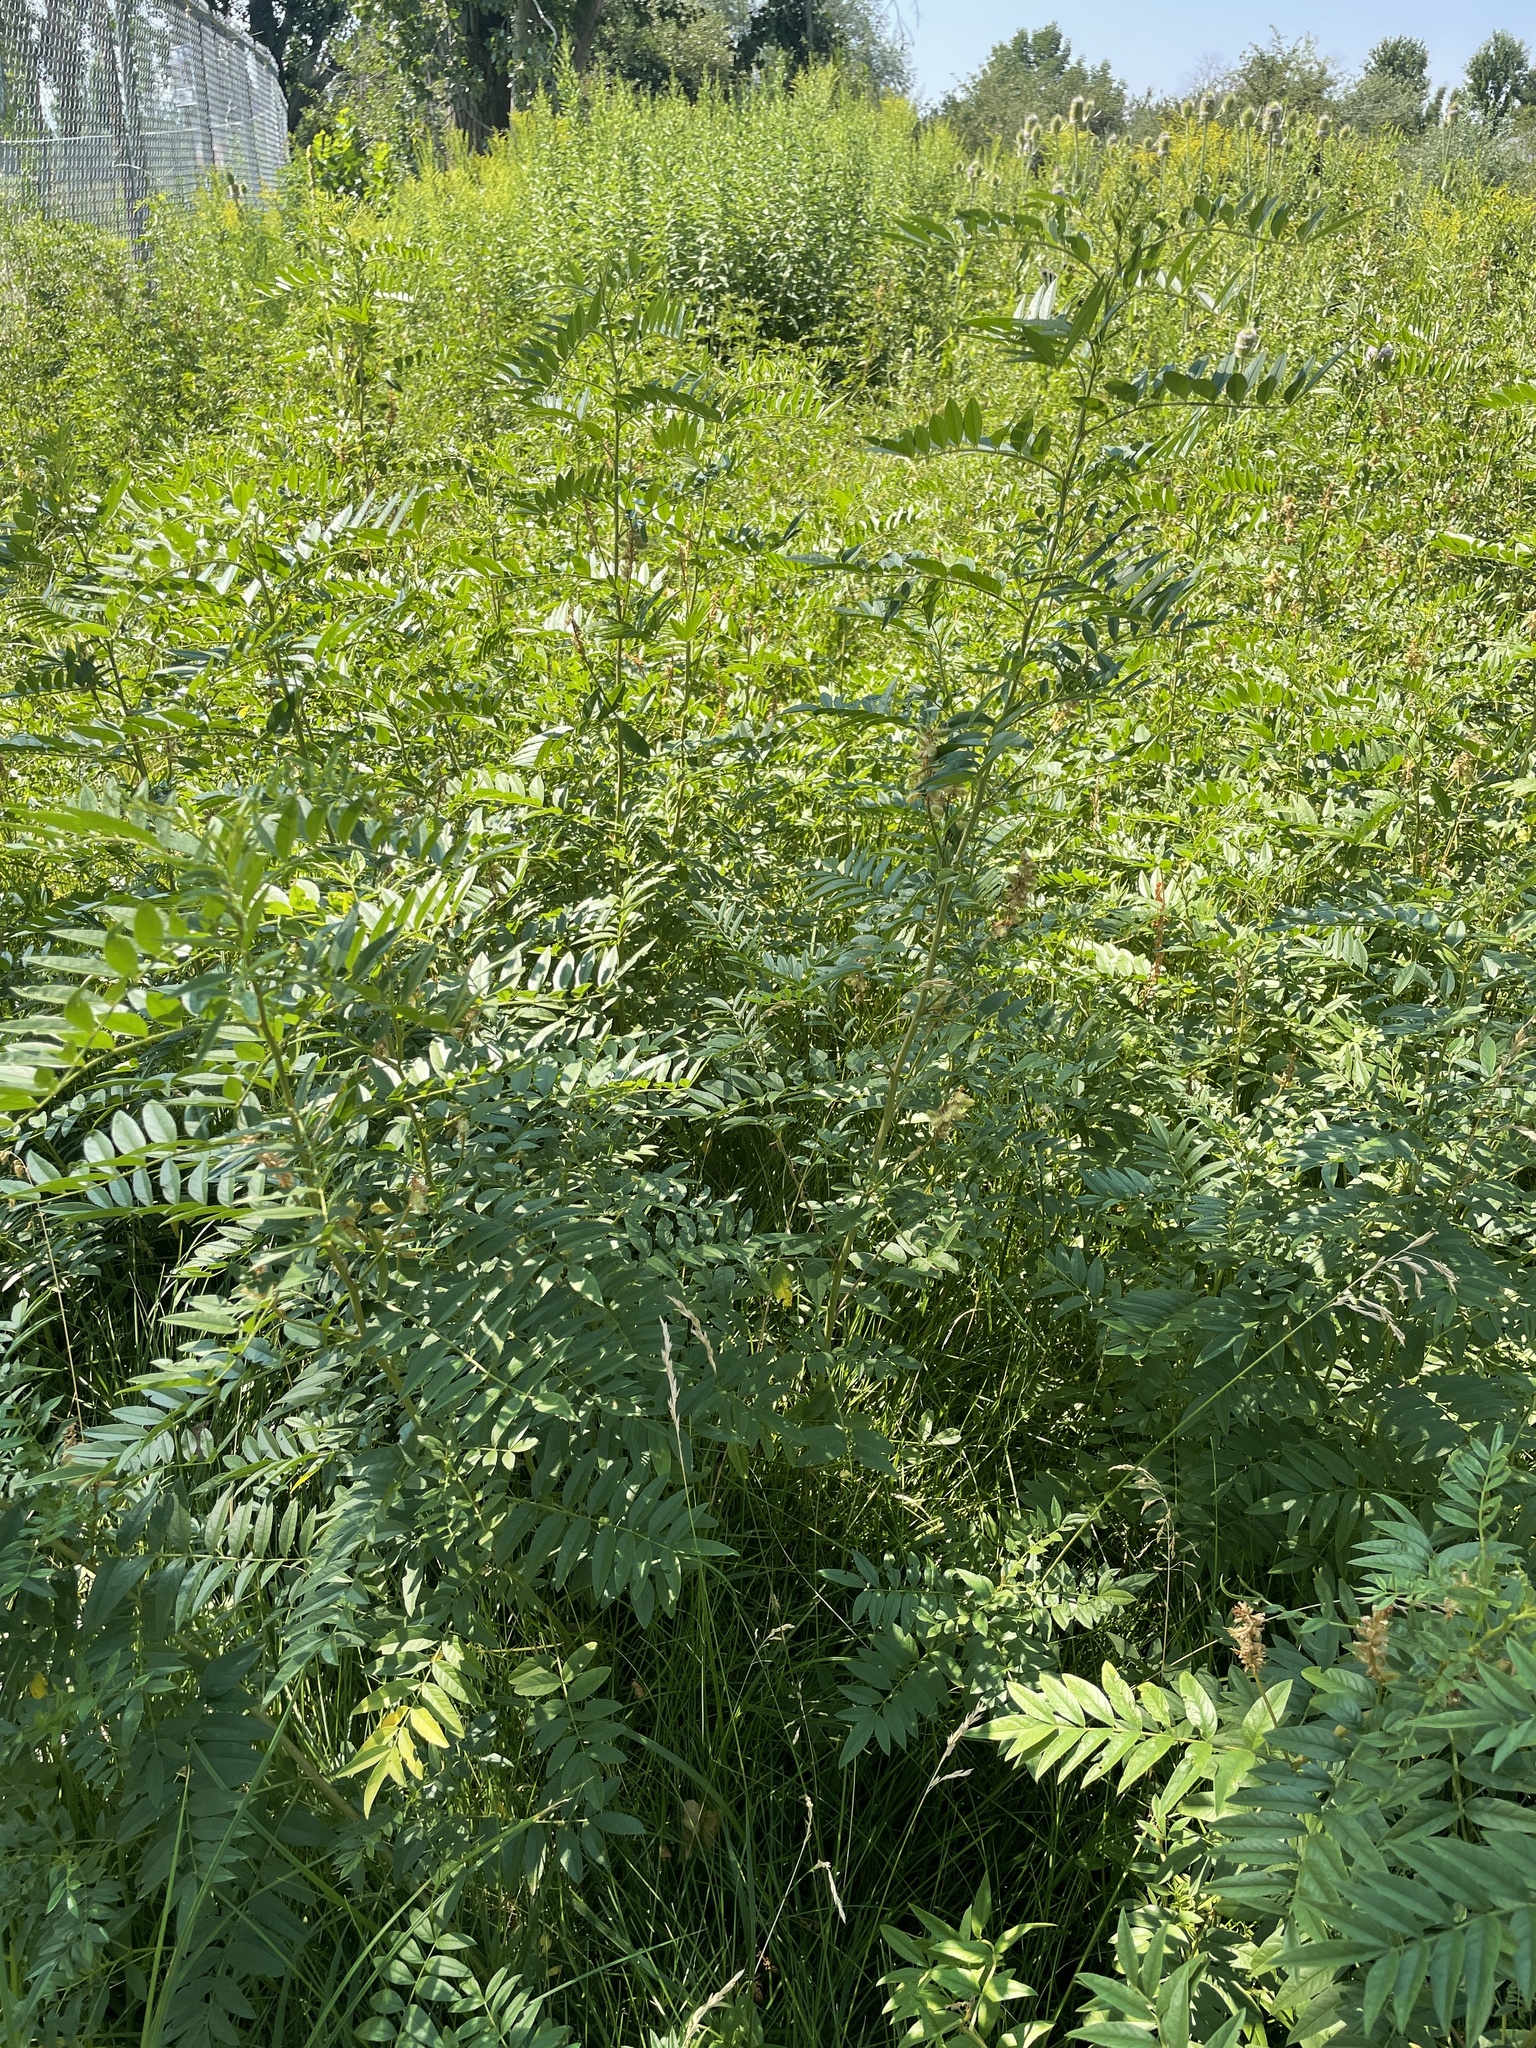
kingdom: Plantae
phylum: Tracheophyta
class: Magnoliopsida
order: Fabales
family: Fabaceae
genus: Glycyrrhiza
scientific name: Glycyrrhiza lepidota
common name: American liquorice
